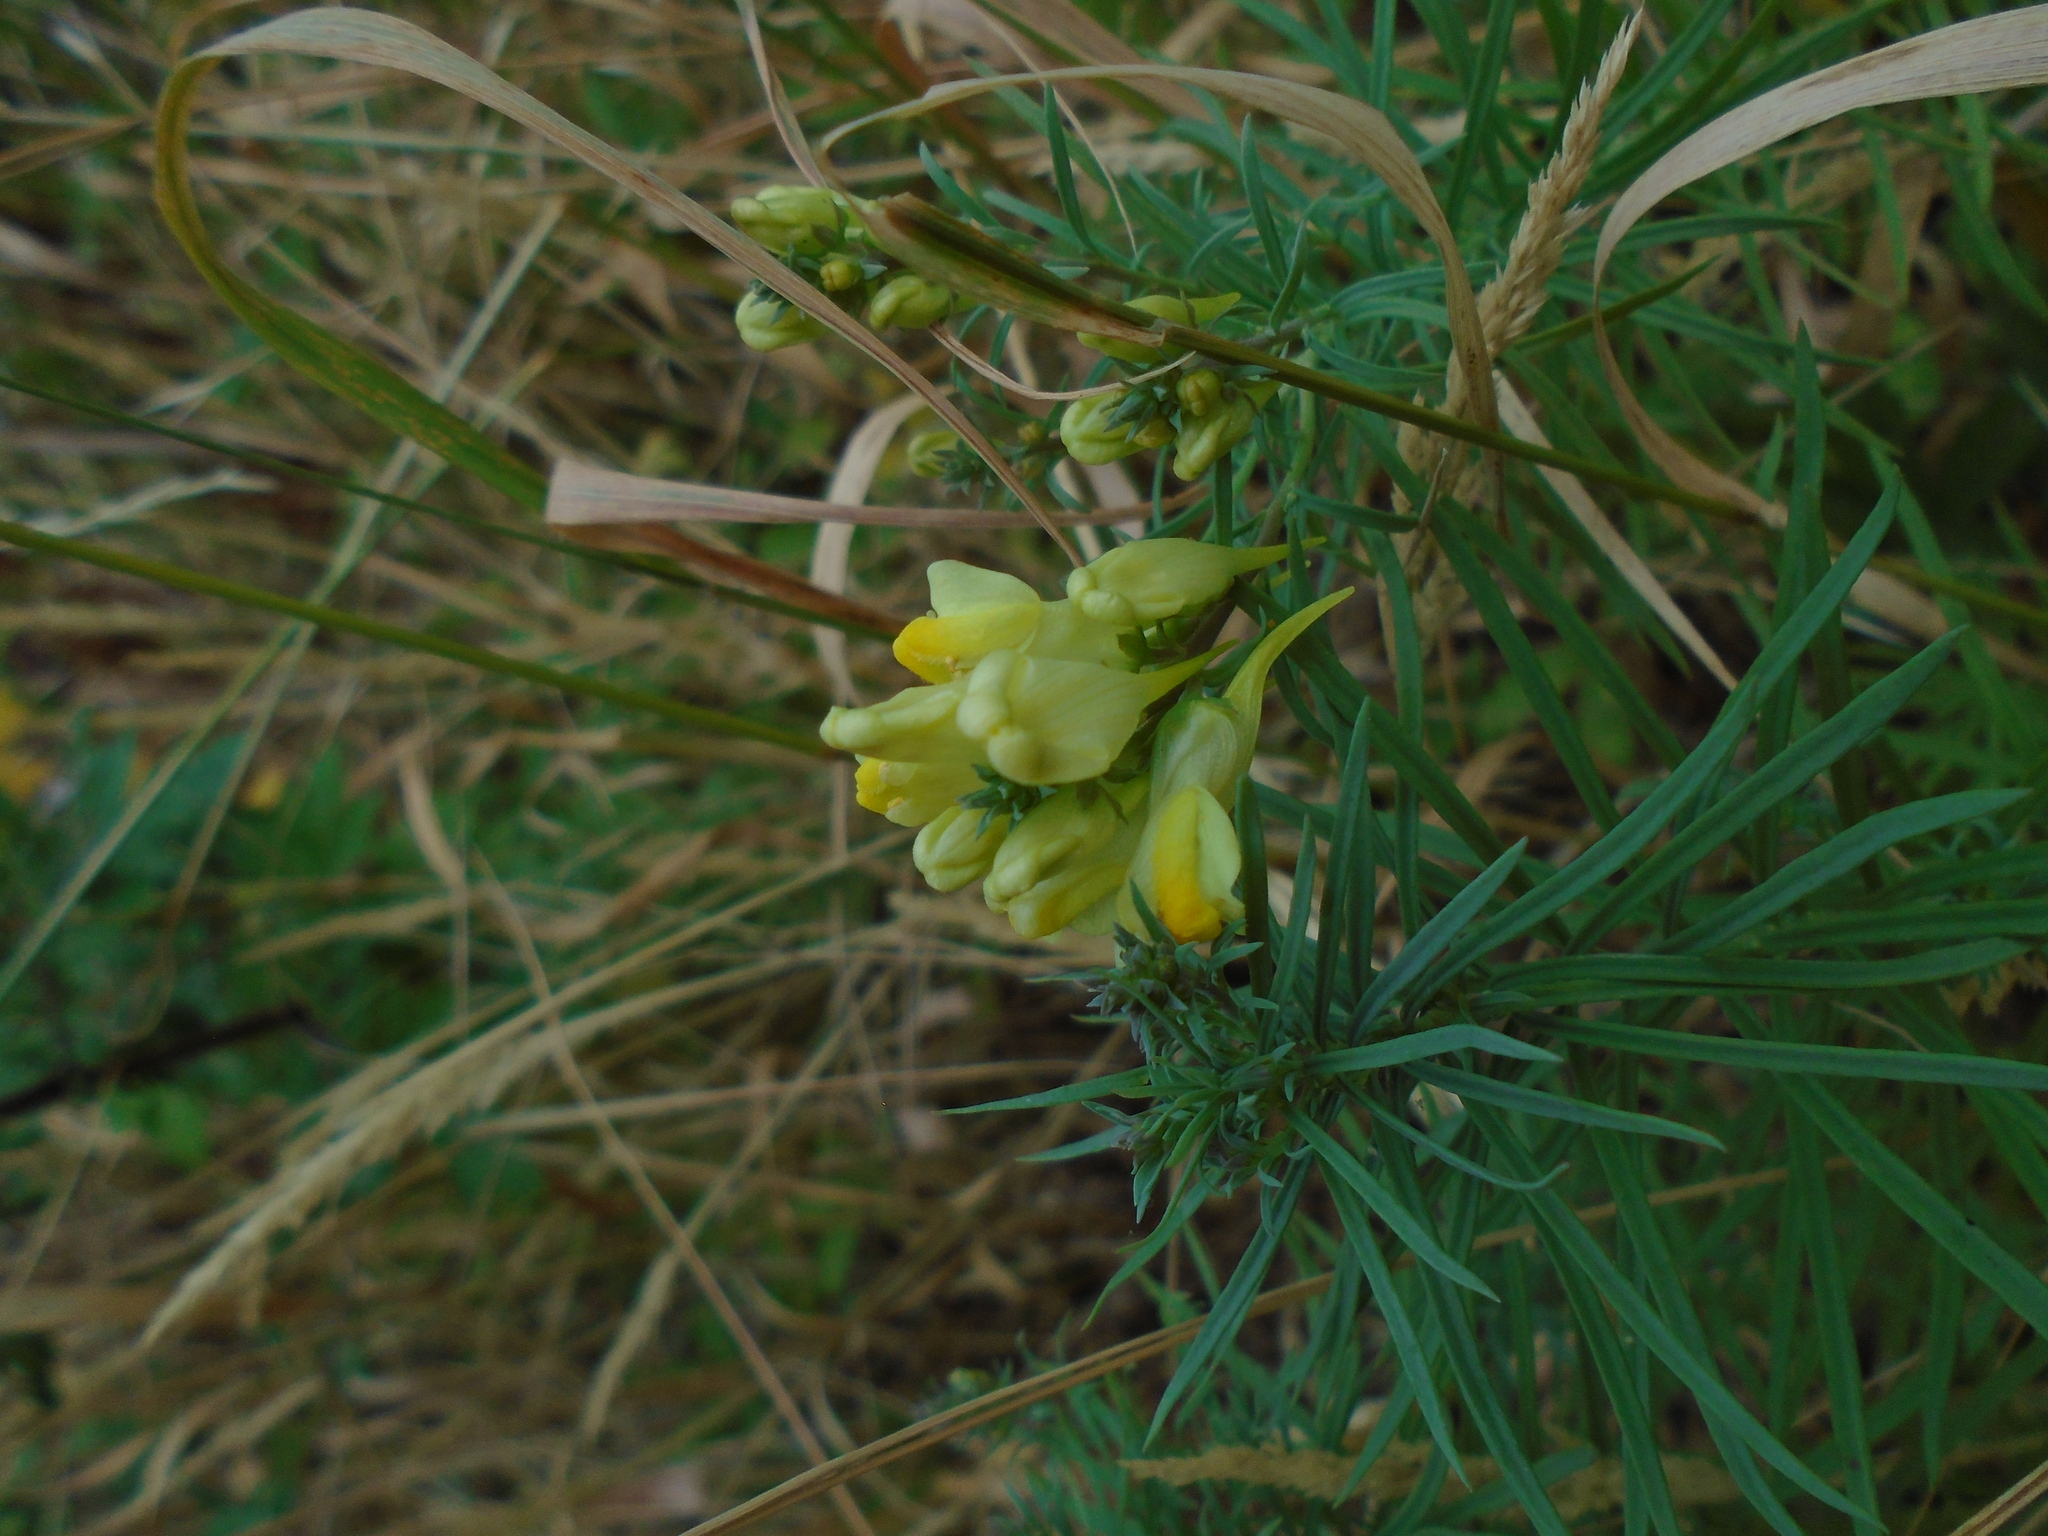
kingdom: Plantae
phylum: Tracheophyta
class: Magnoliopsida
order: Lamiales
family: Plantaginaceae
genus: Linaria
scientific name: Linaria vulgaris
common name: Butter and eggs
